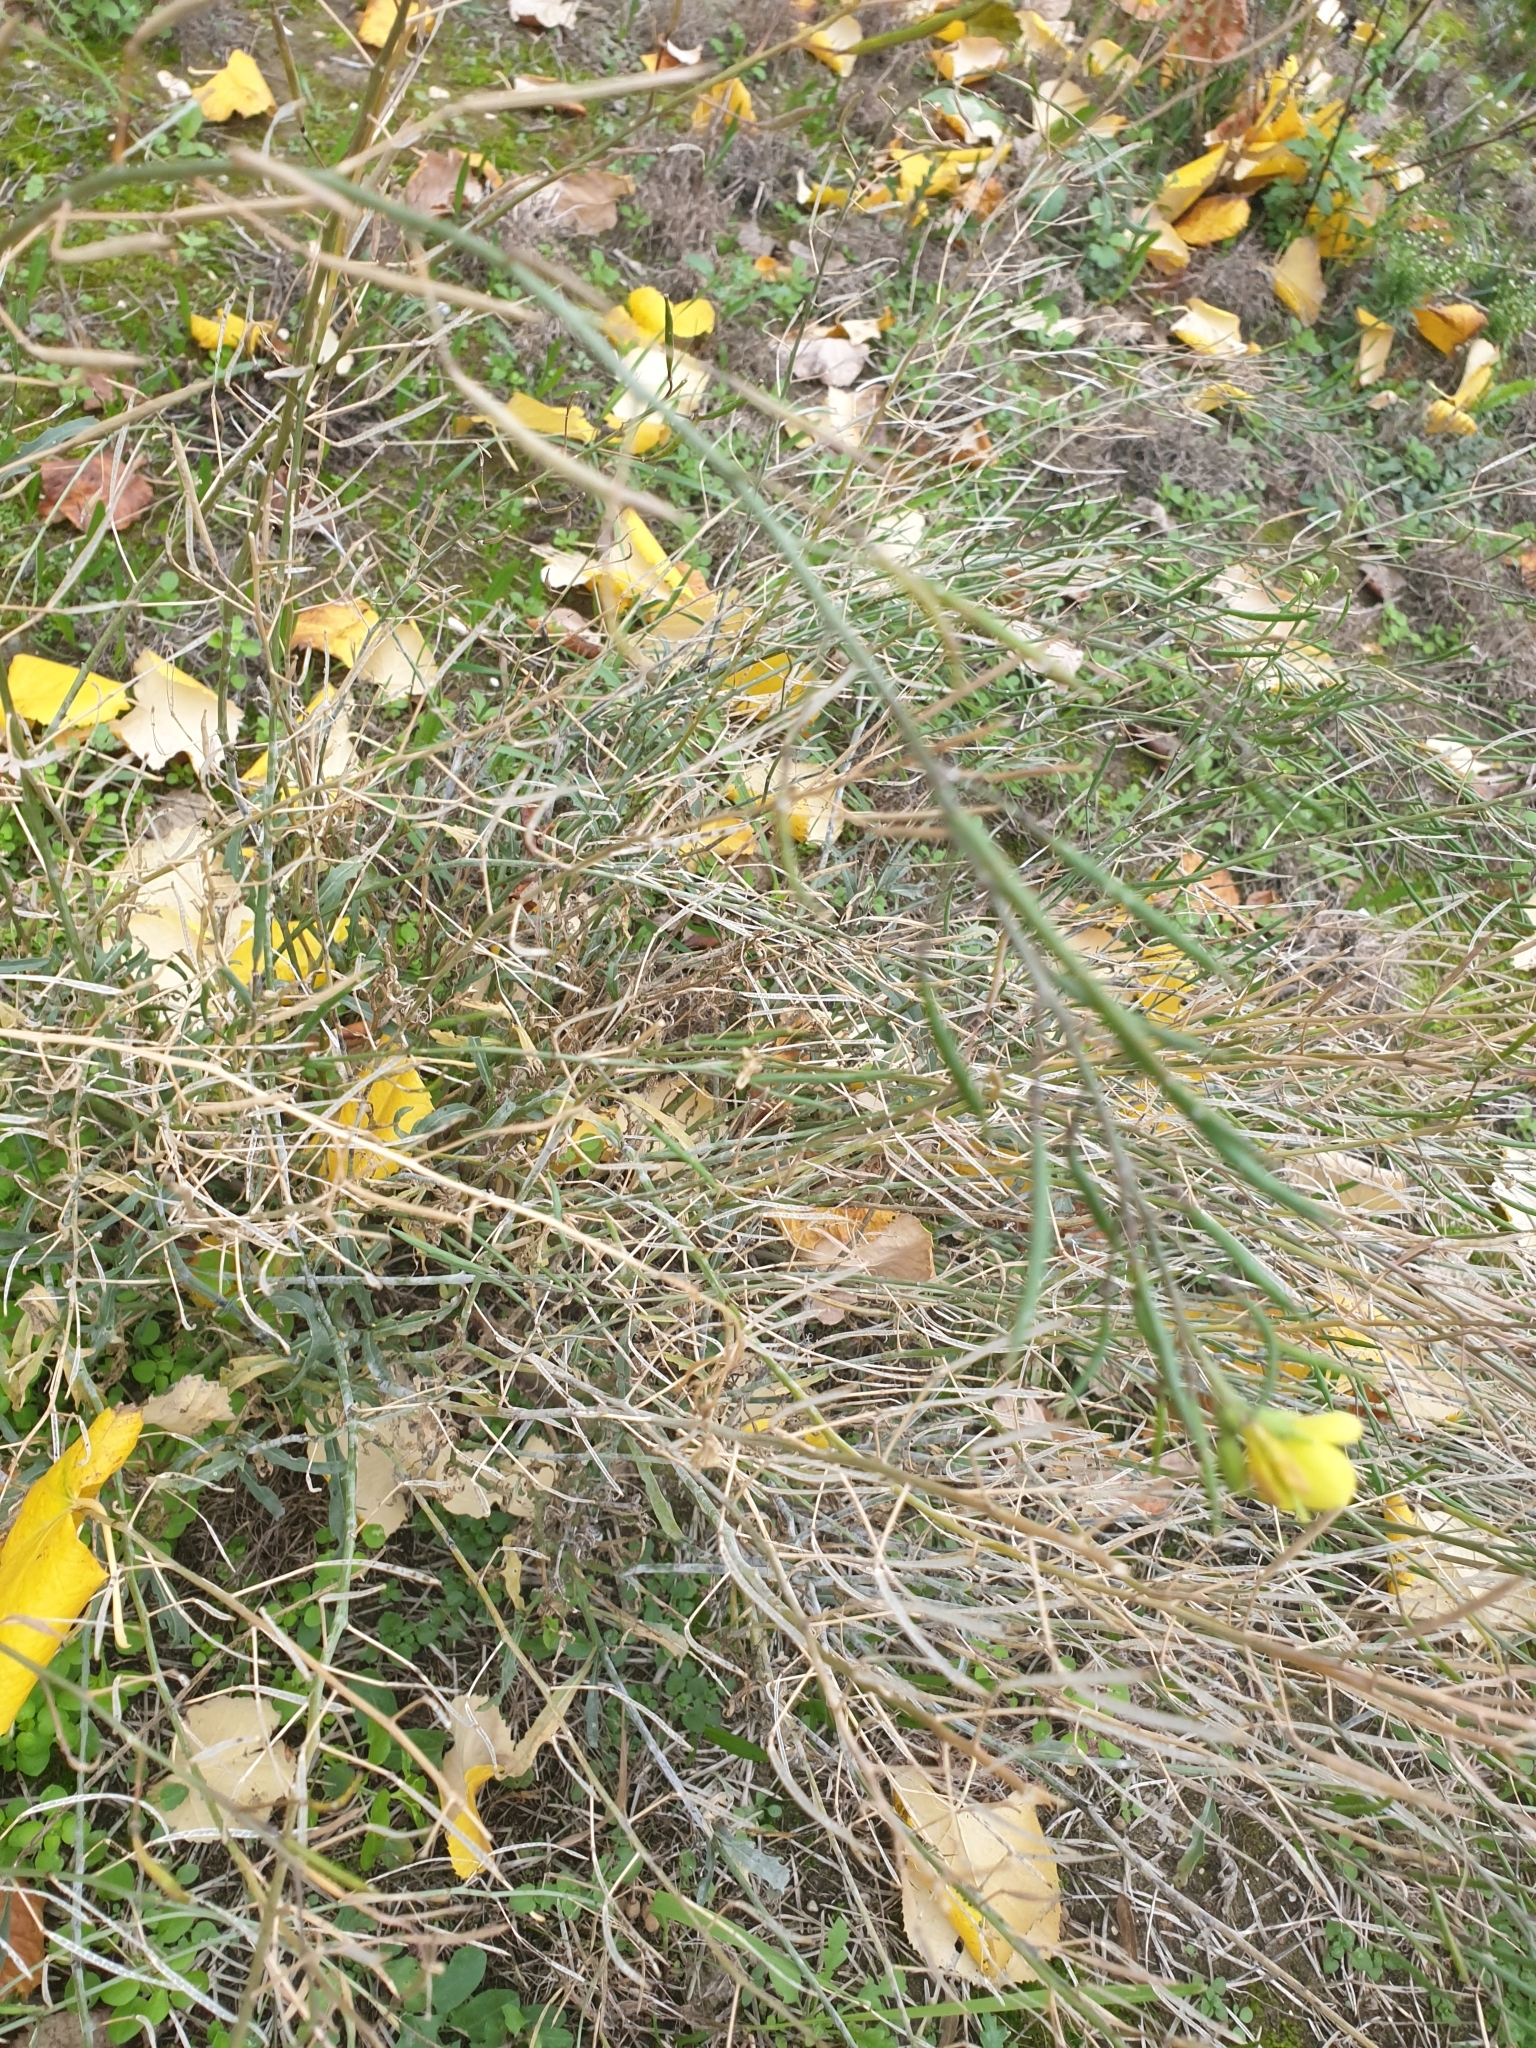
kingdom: Plantae
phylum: Tracheophyta
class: Magnoliopsida
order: Brassicales
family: Brassicaceae
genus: Diplotaxis
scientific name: Diplotaxis tenuifolia
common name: Perennial wall-rocket
